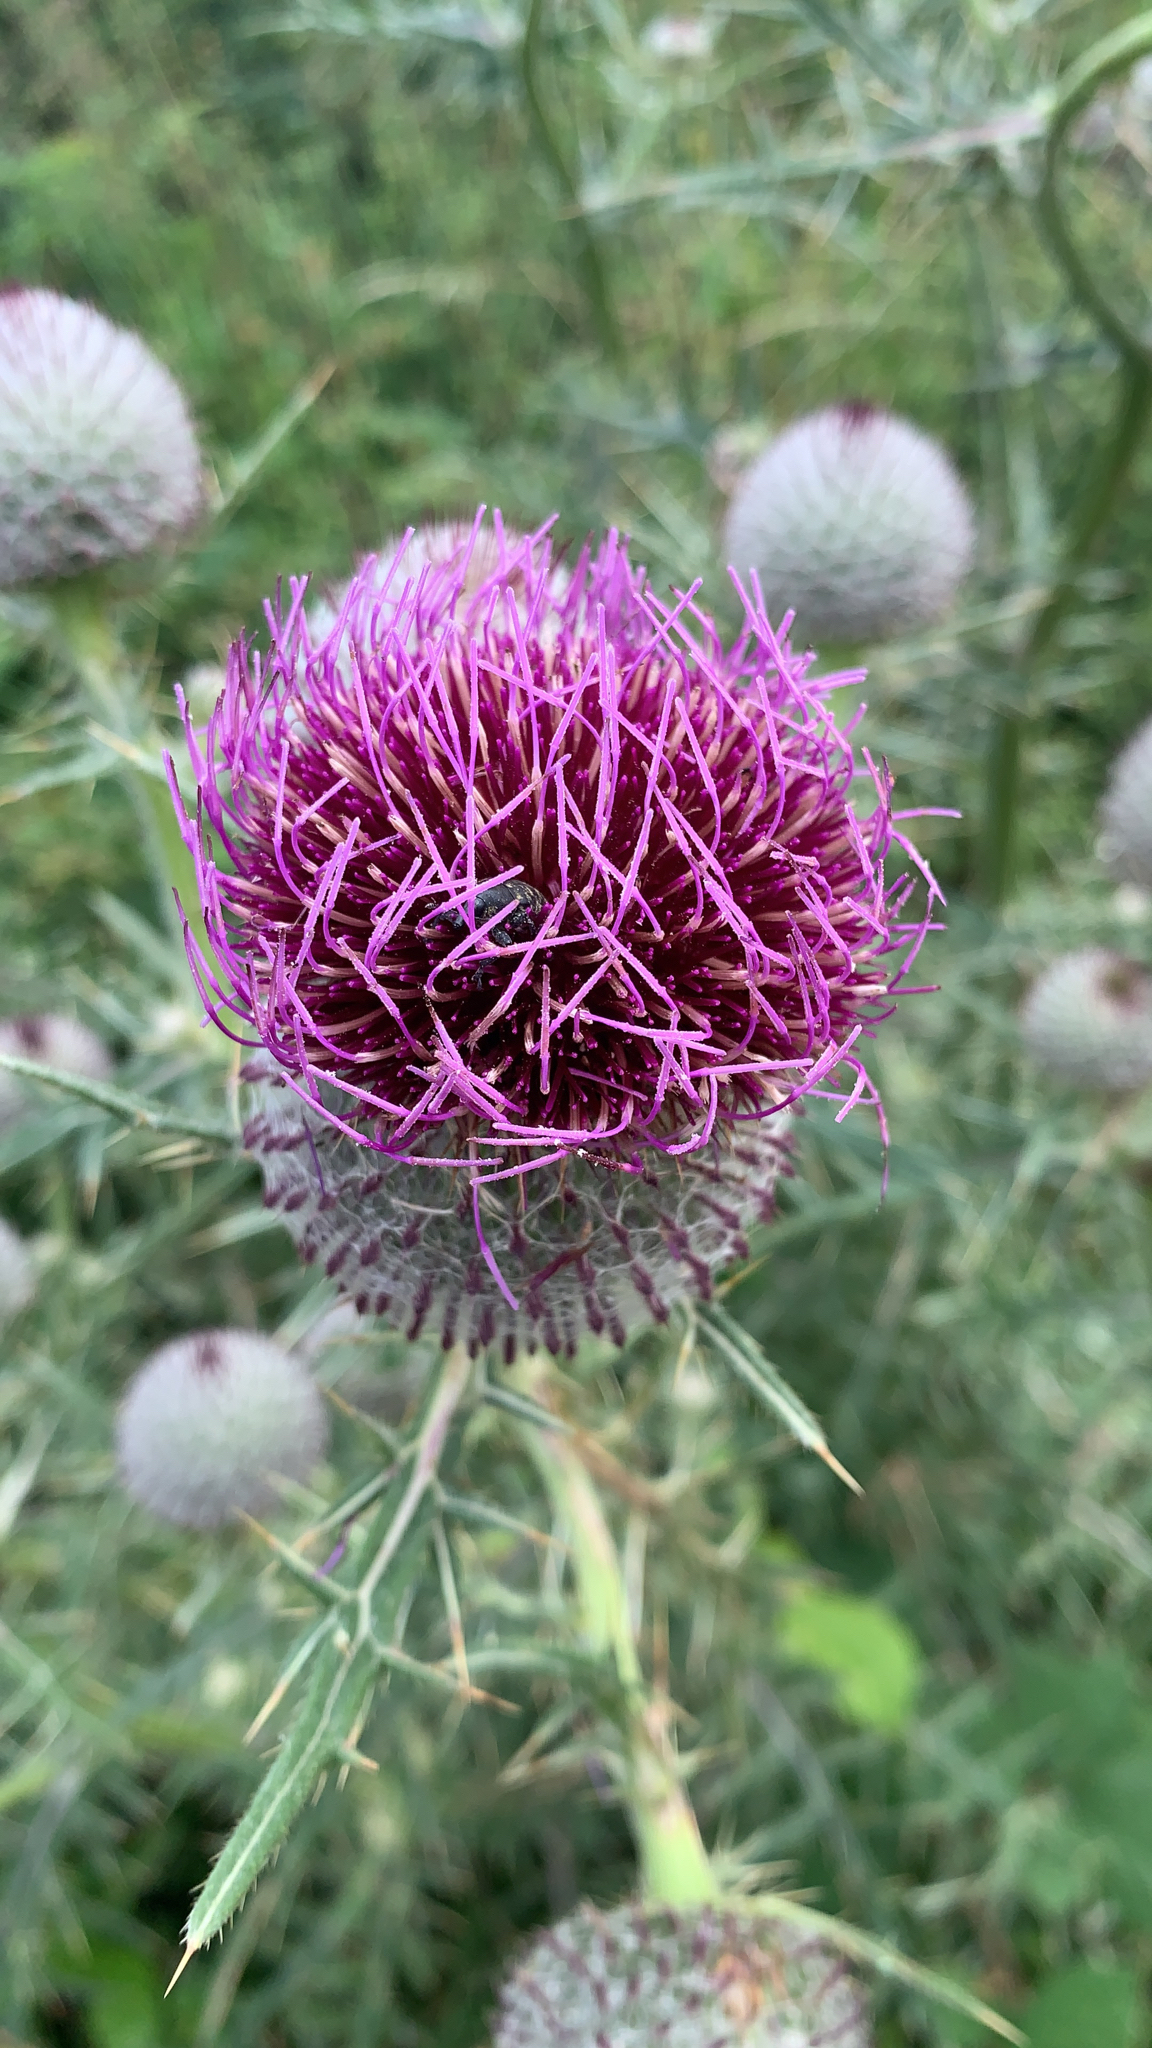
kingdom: Plantae
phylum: Tracheophyta
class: Magnoliopsida
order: Asterales
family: Asteraceae
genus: Lophiolepis
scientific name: Lophiolepis eriophora
